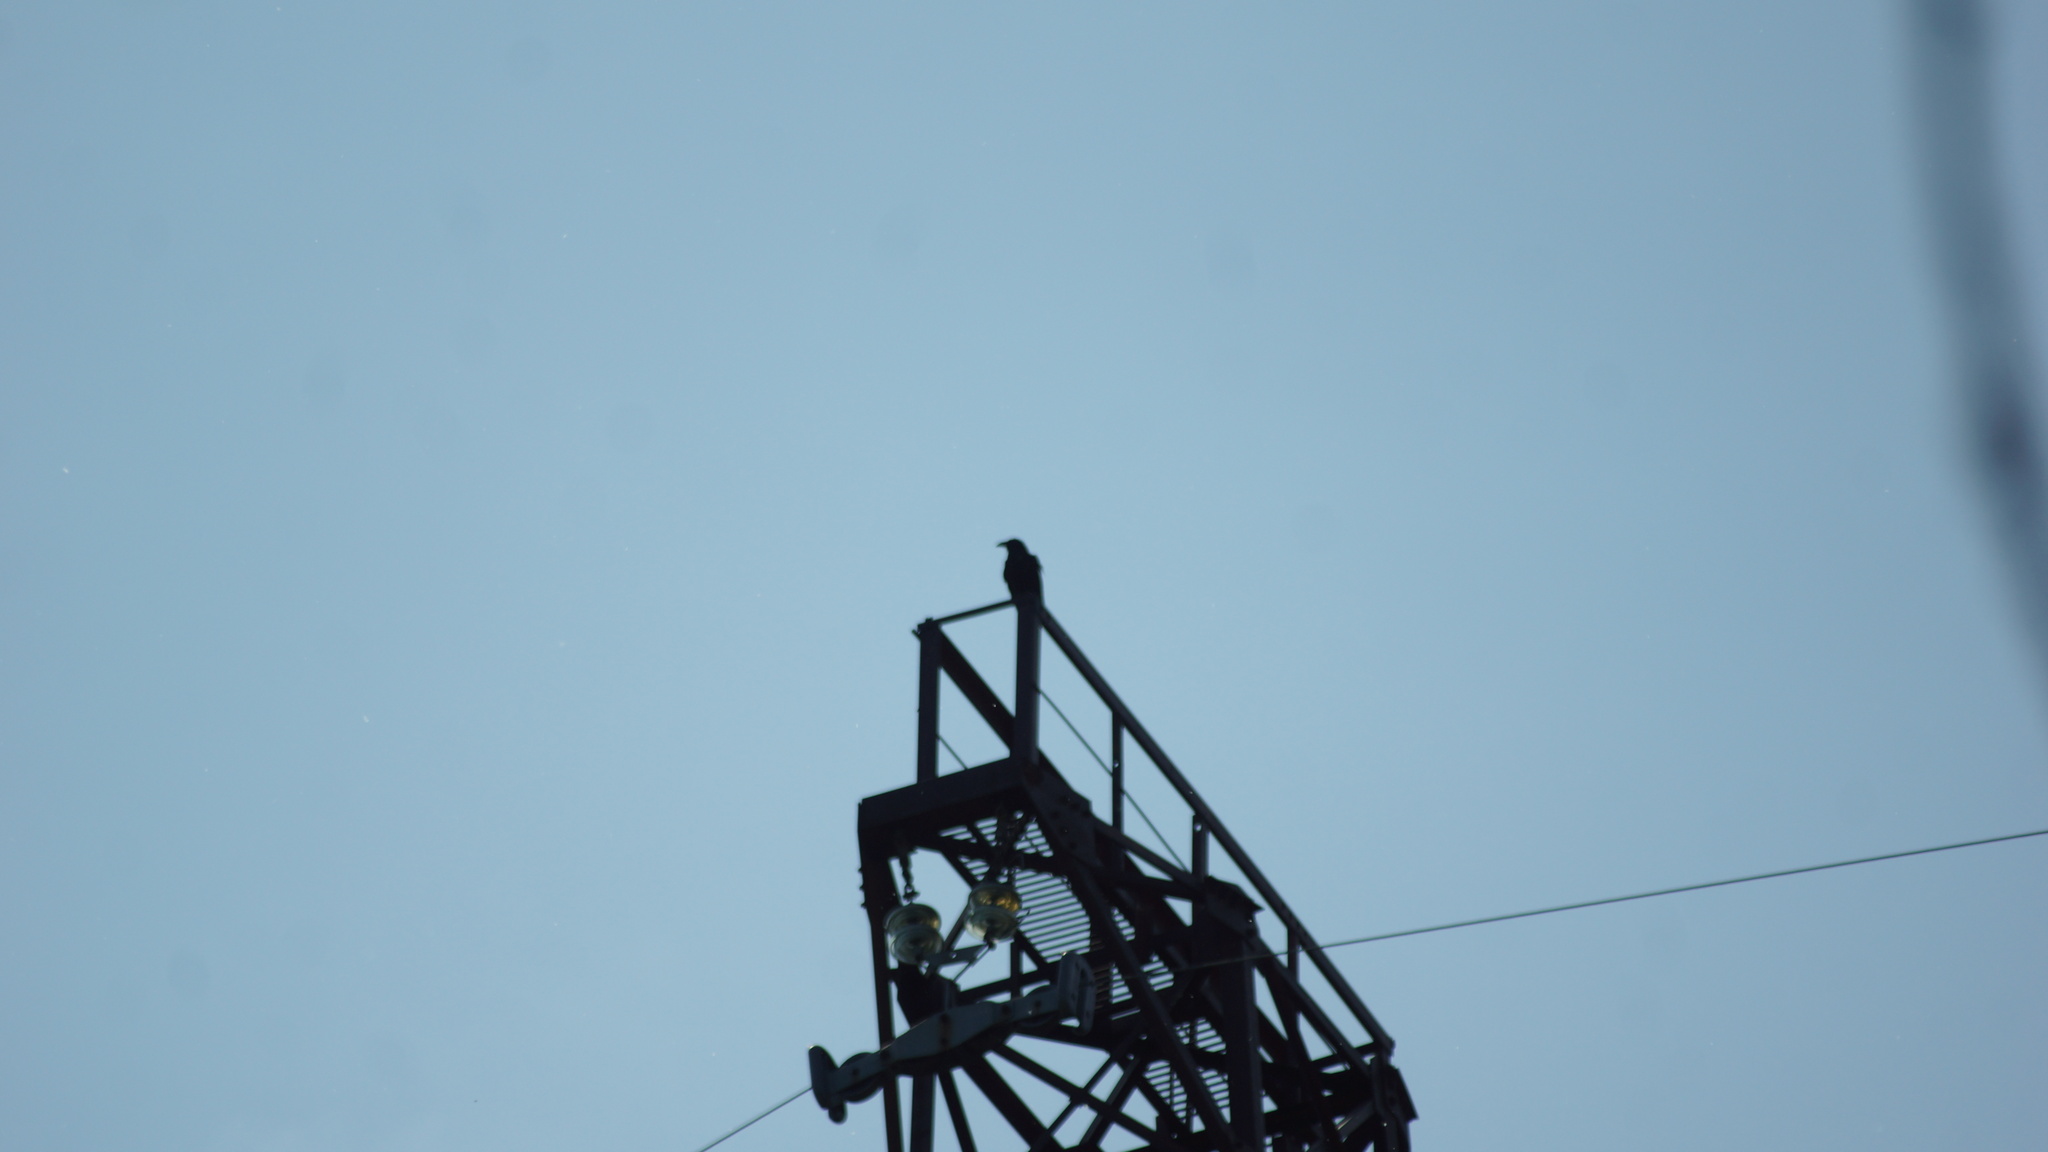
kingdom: Animalia
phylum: Chordata
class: Aves
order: Passeriformes
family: Corvidae
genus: Corvus
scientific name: Corvus corax
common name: Common raven
